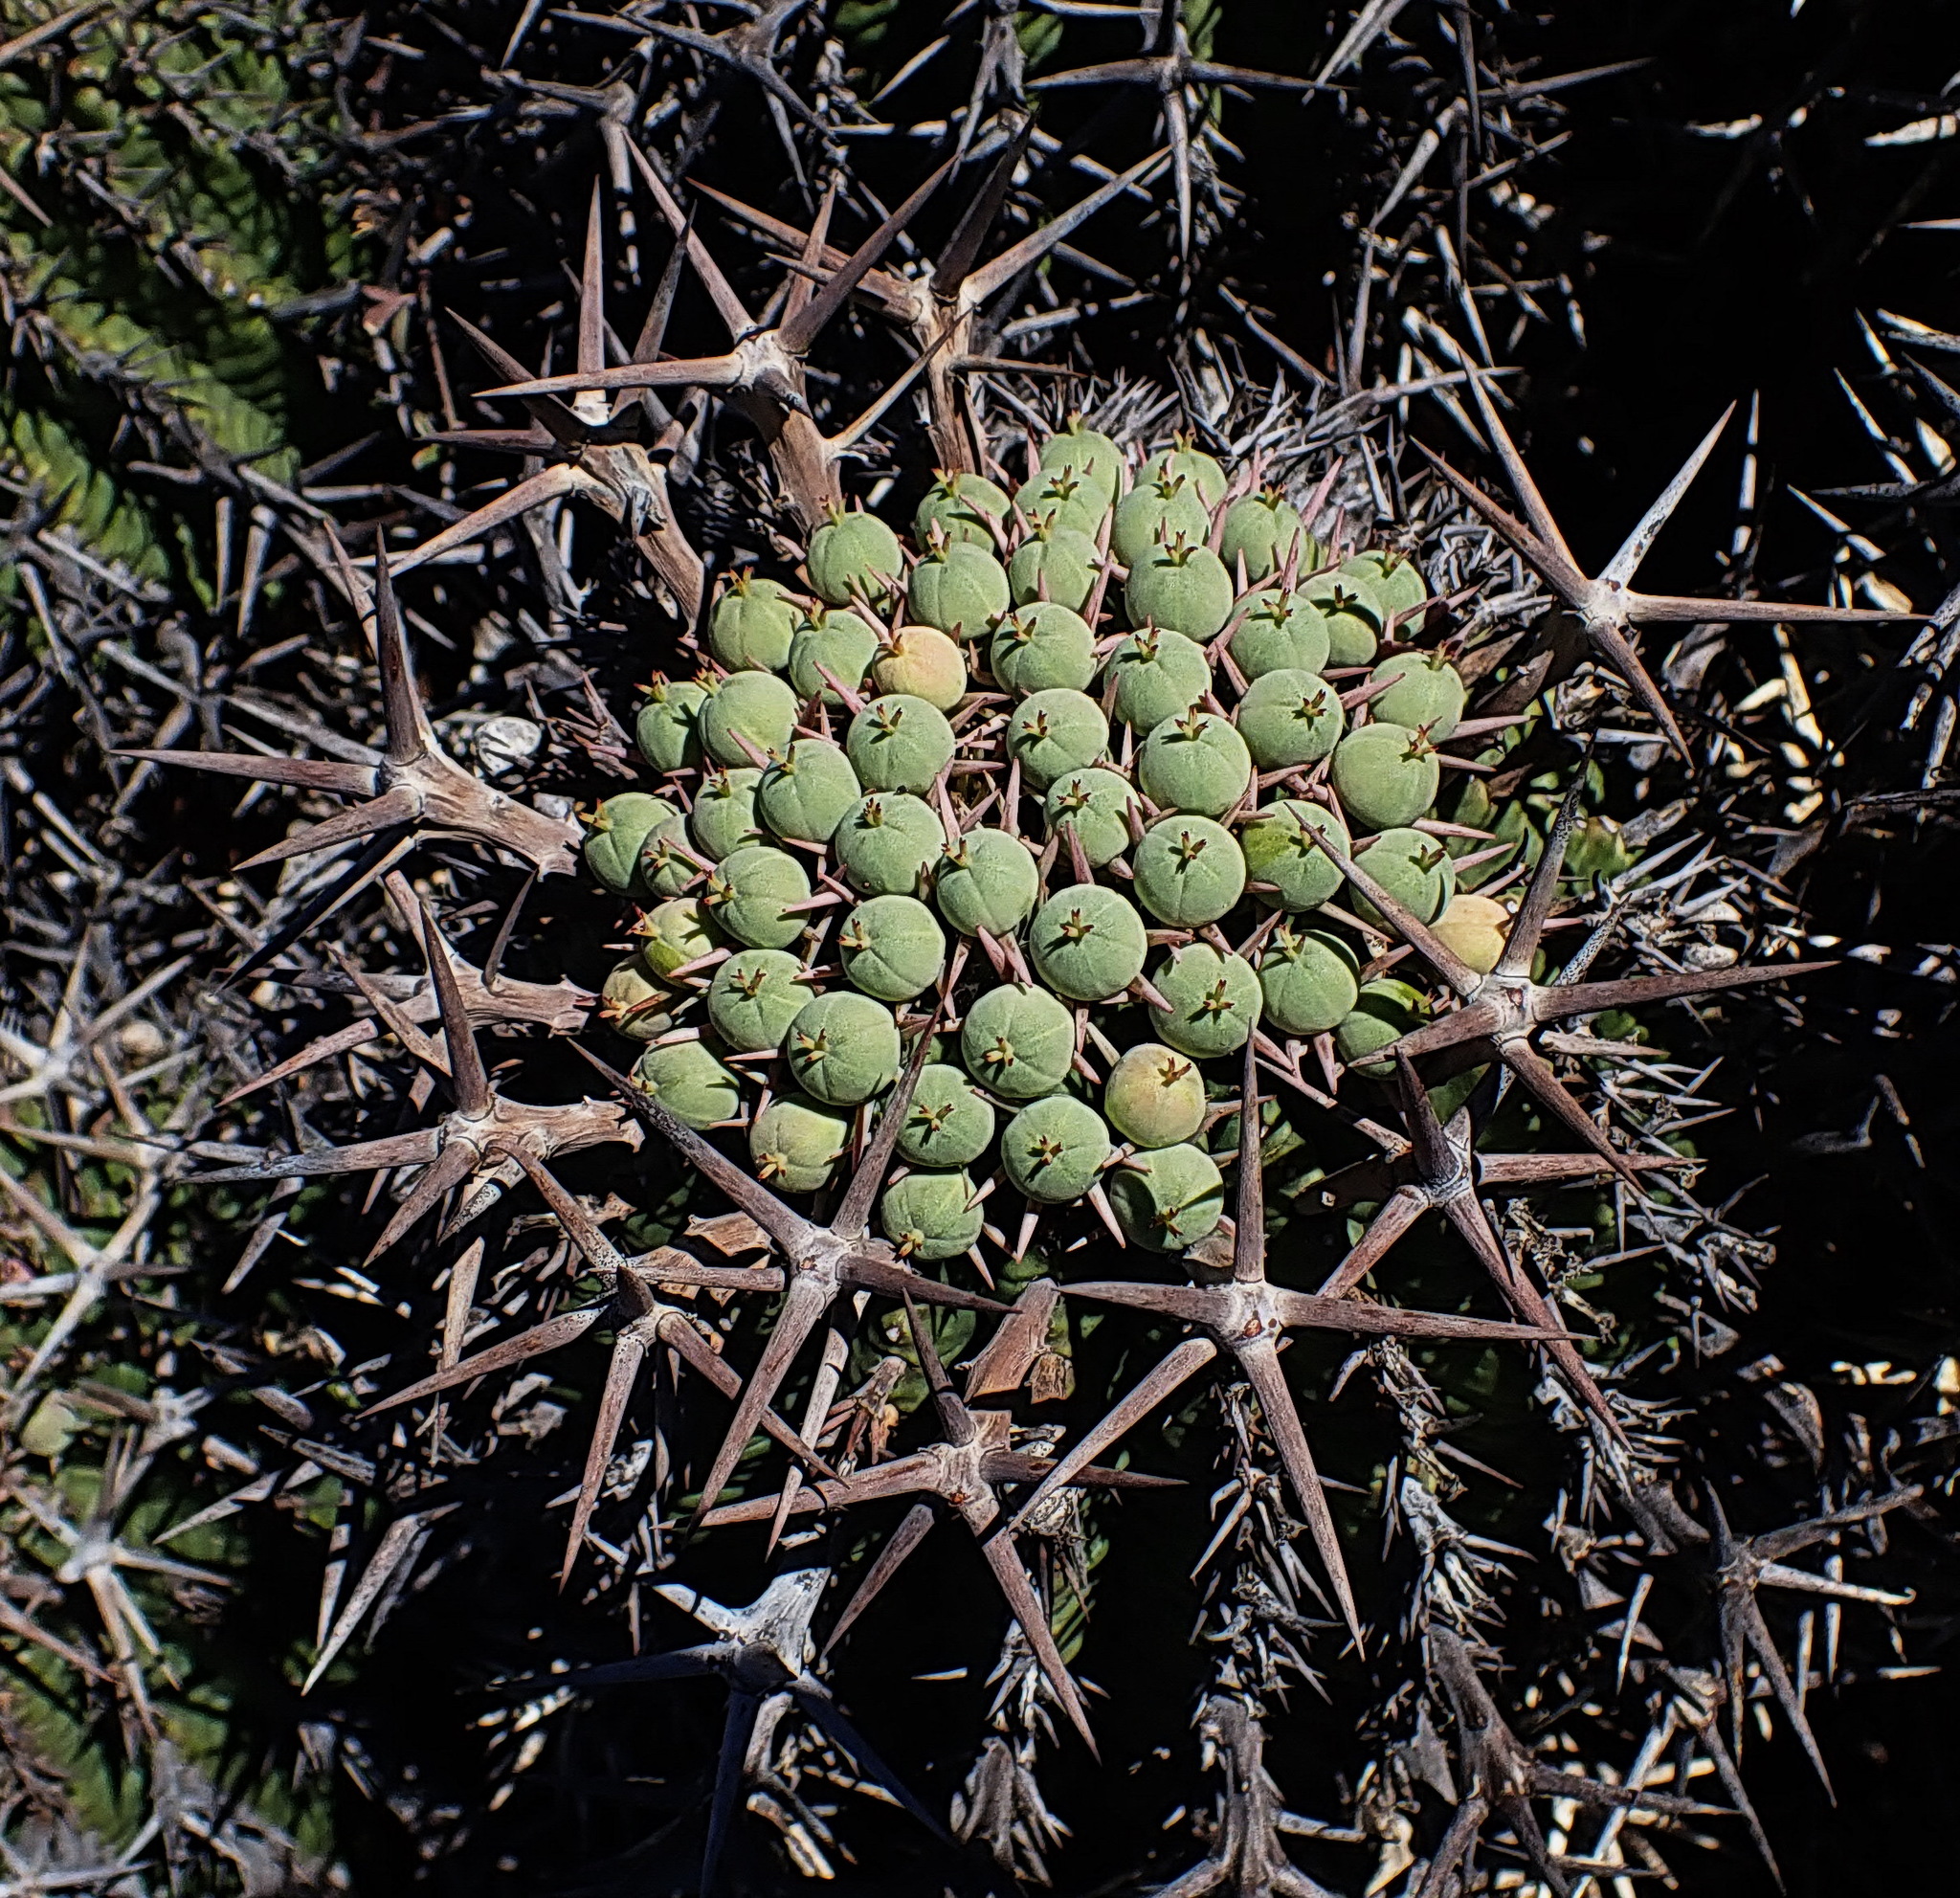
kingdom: Plantae
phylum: Tracheophyta
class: Magnoliopsida
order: Malpighiales
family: Euphorbiaceae
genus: Euphorbia
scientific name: Euphorbia stellispina
